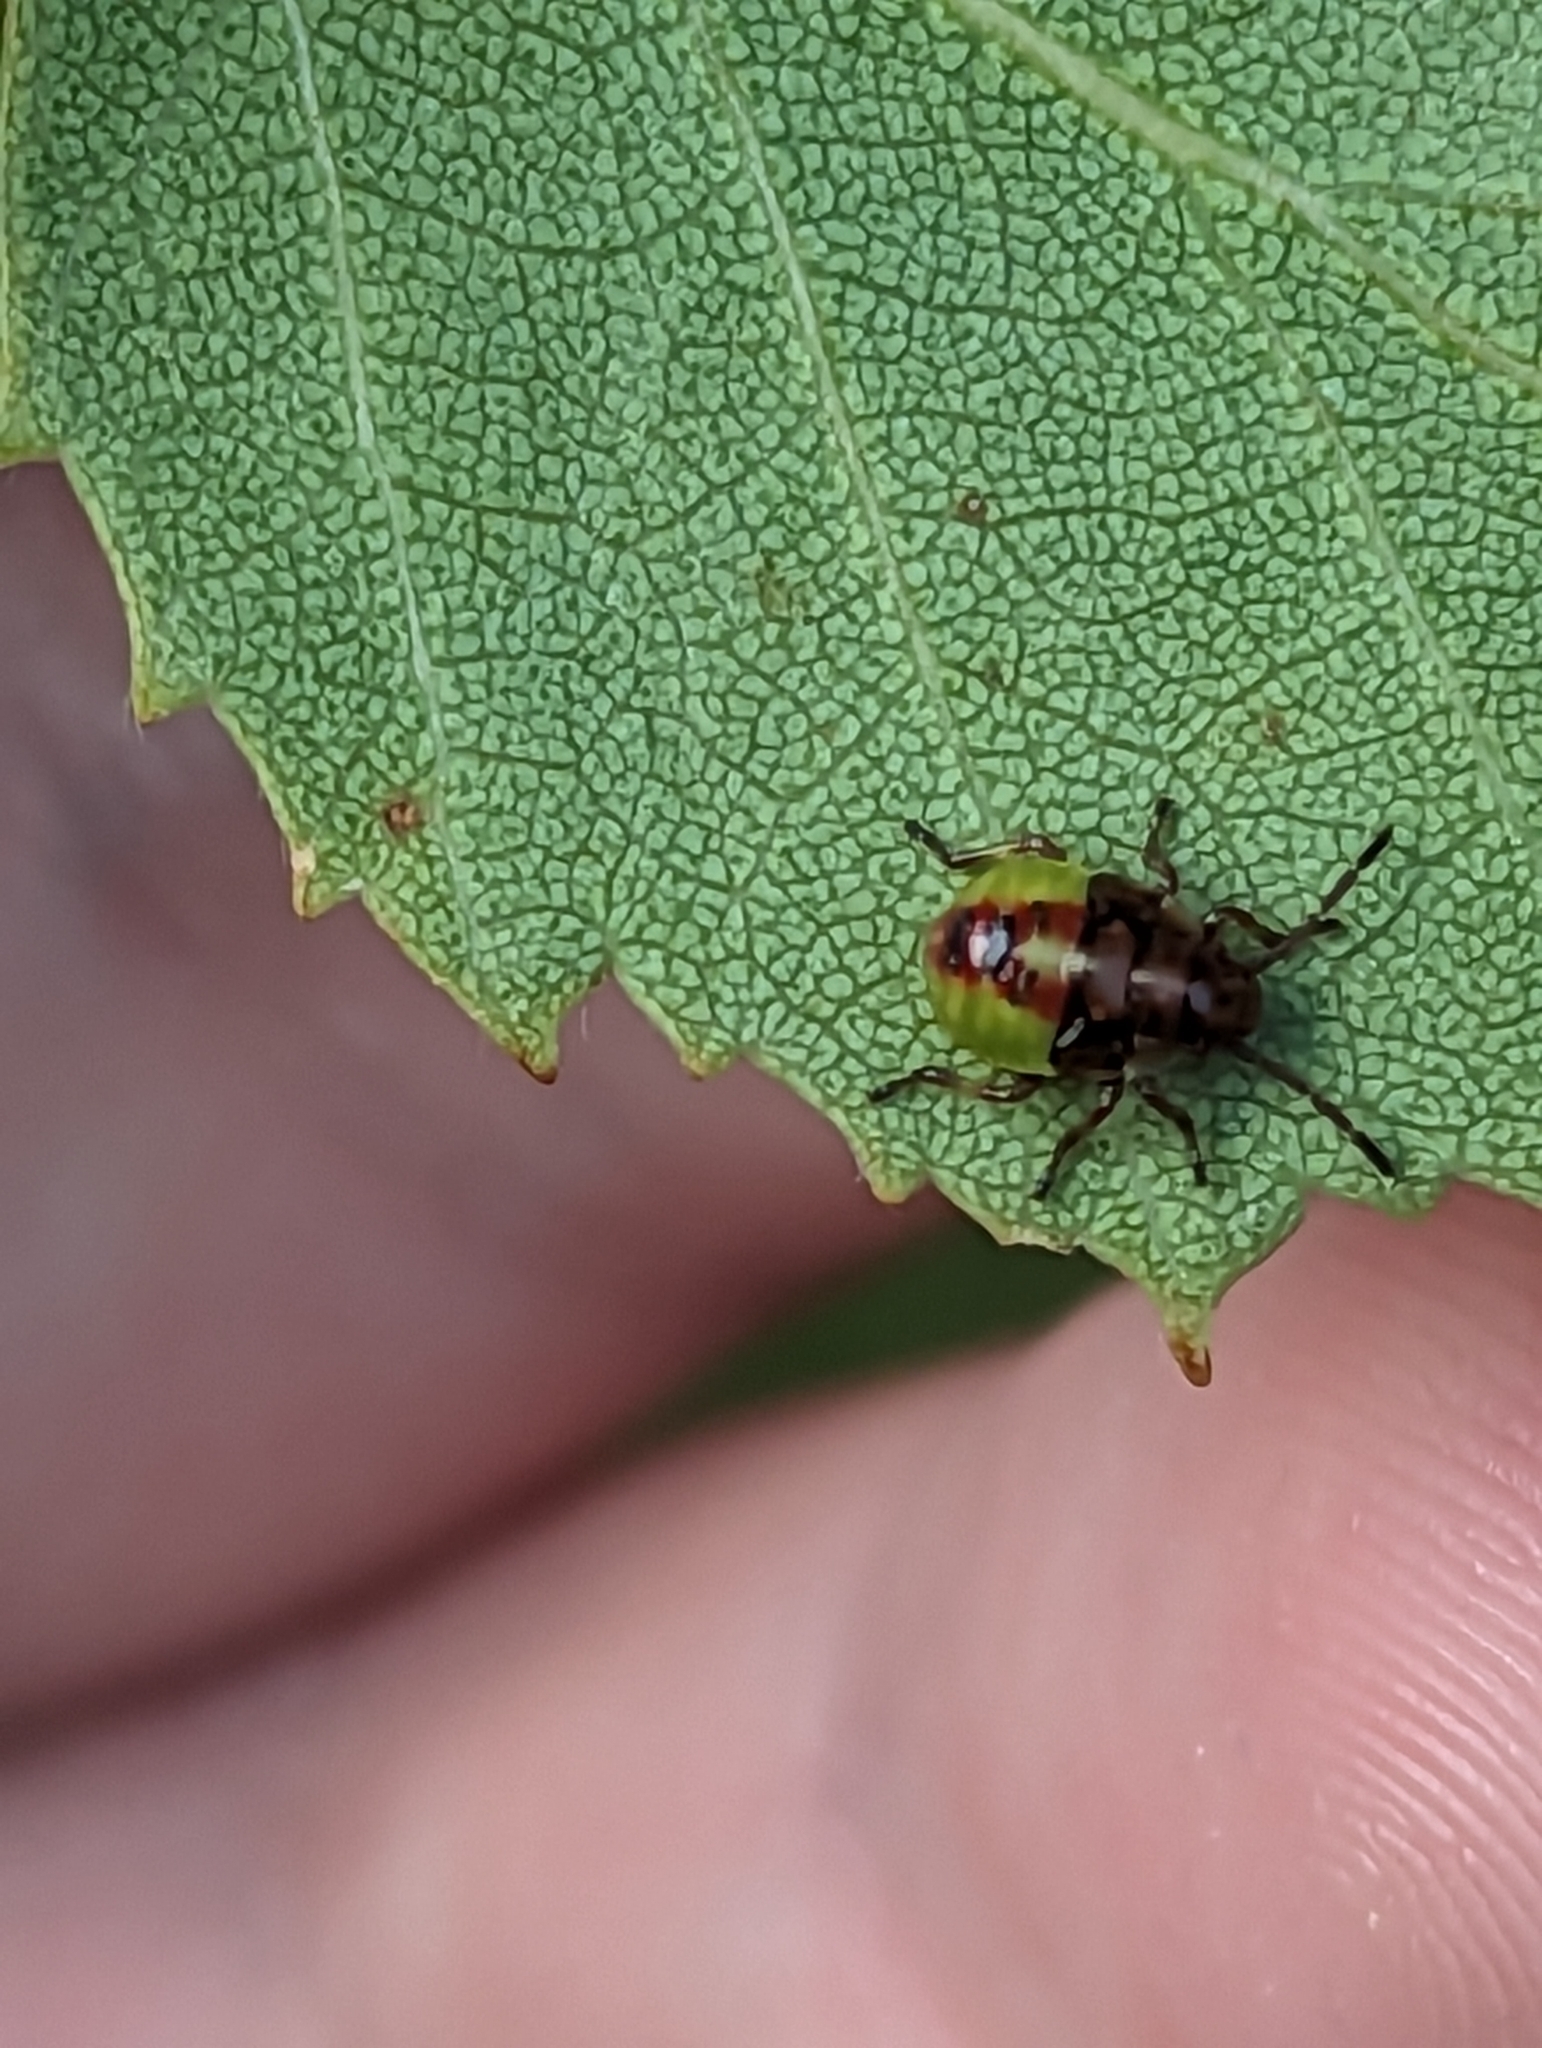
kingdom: Animalia
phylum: Arthropoda
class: Insecta
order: Hemiptera
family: Acanthosomatidae
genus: Elasmostethus
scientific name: Elasmostethus interstinctus
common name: Birch shieldbug
